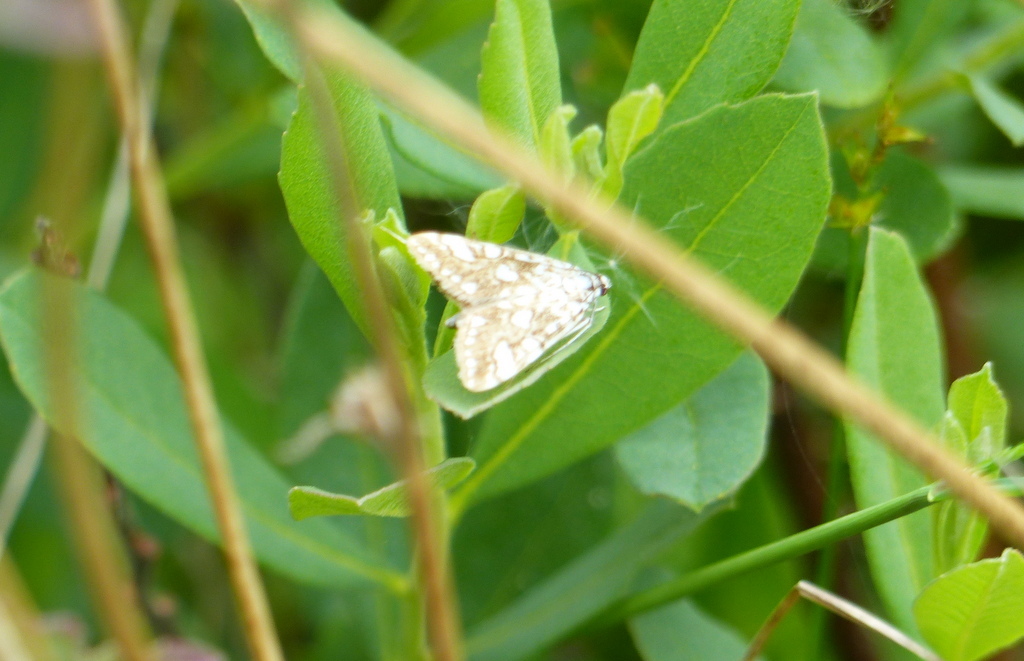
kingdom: Animalia
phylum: Arthropoda
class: Insecta
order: Lepidoptera
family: Crambidae
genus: Elophila
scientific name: Elophila nymphaeata
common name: Brown china-mark
